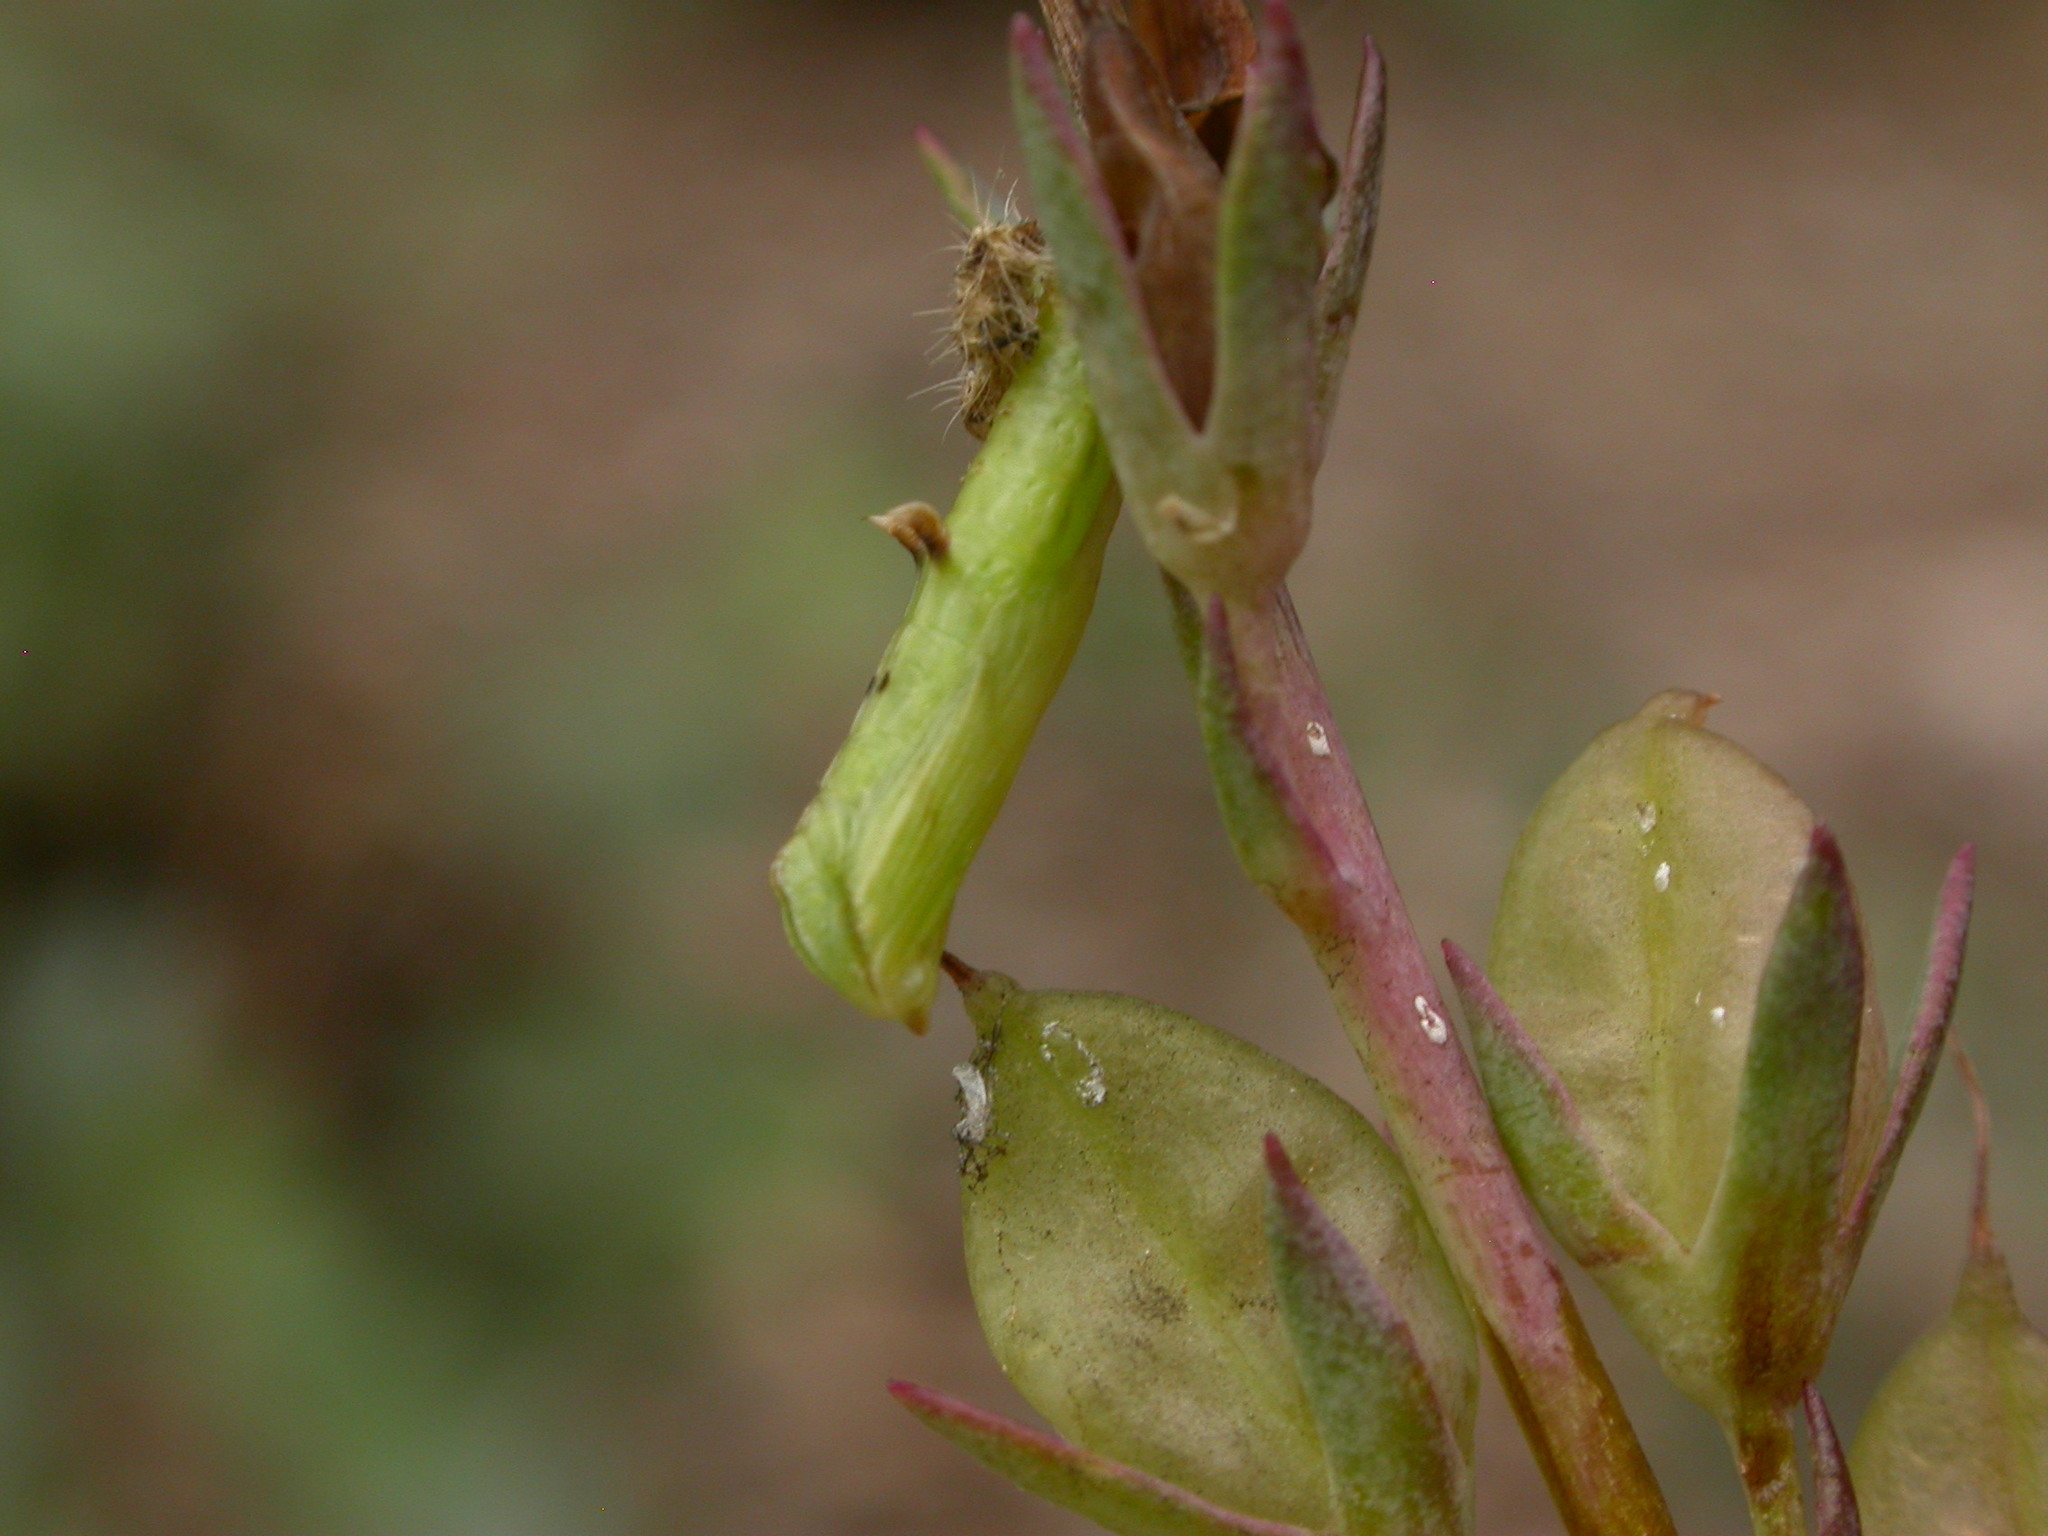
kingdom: Animalia
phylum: Arthropoda
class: Insecta
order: Lepidoptera
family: Pterophoridae
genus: Sinpunctiptilia
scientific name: Sinpunctiptilia emissalis
